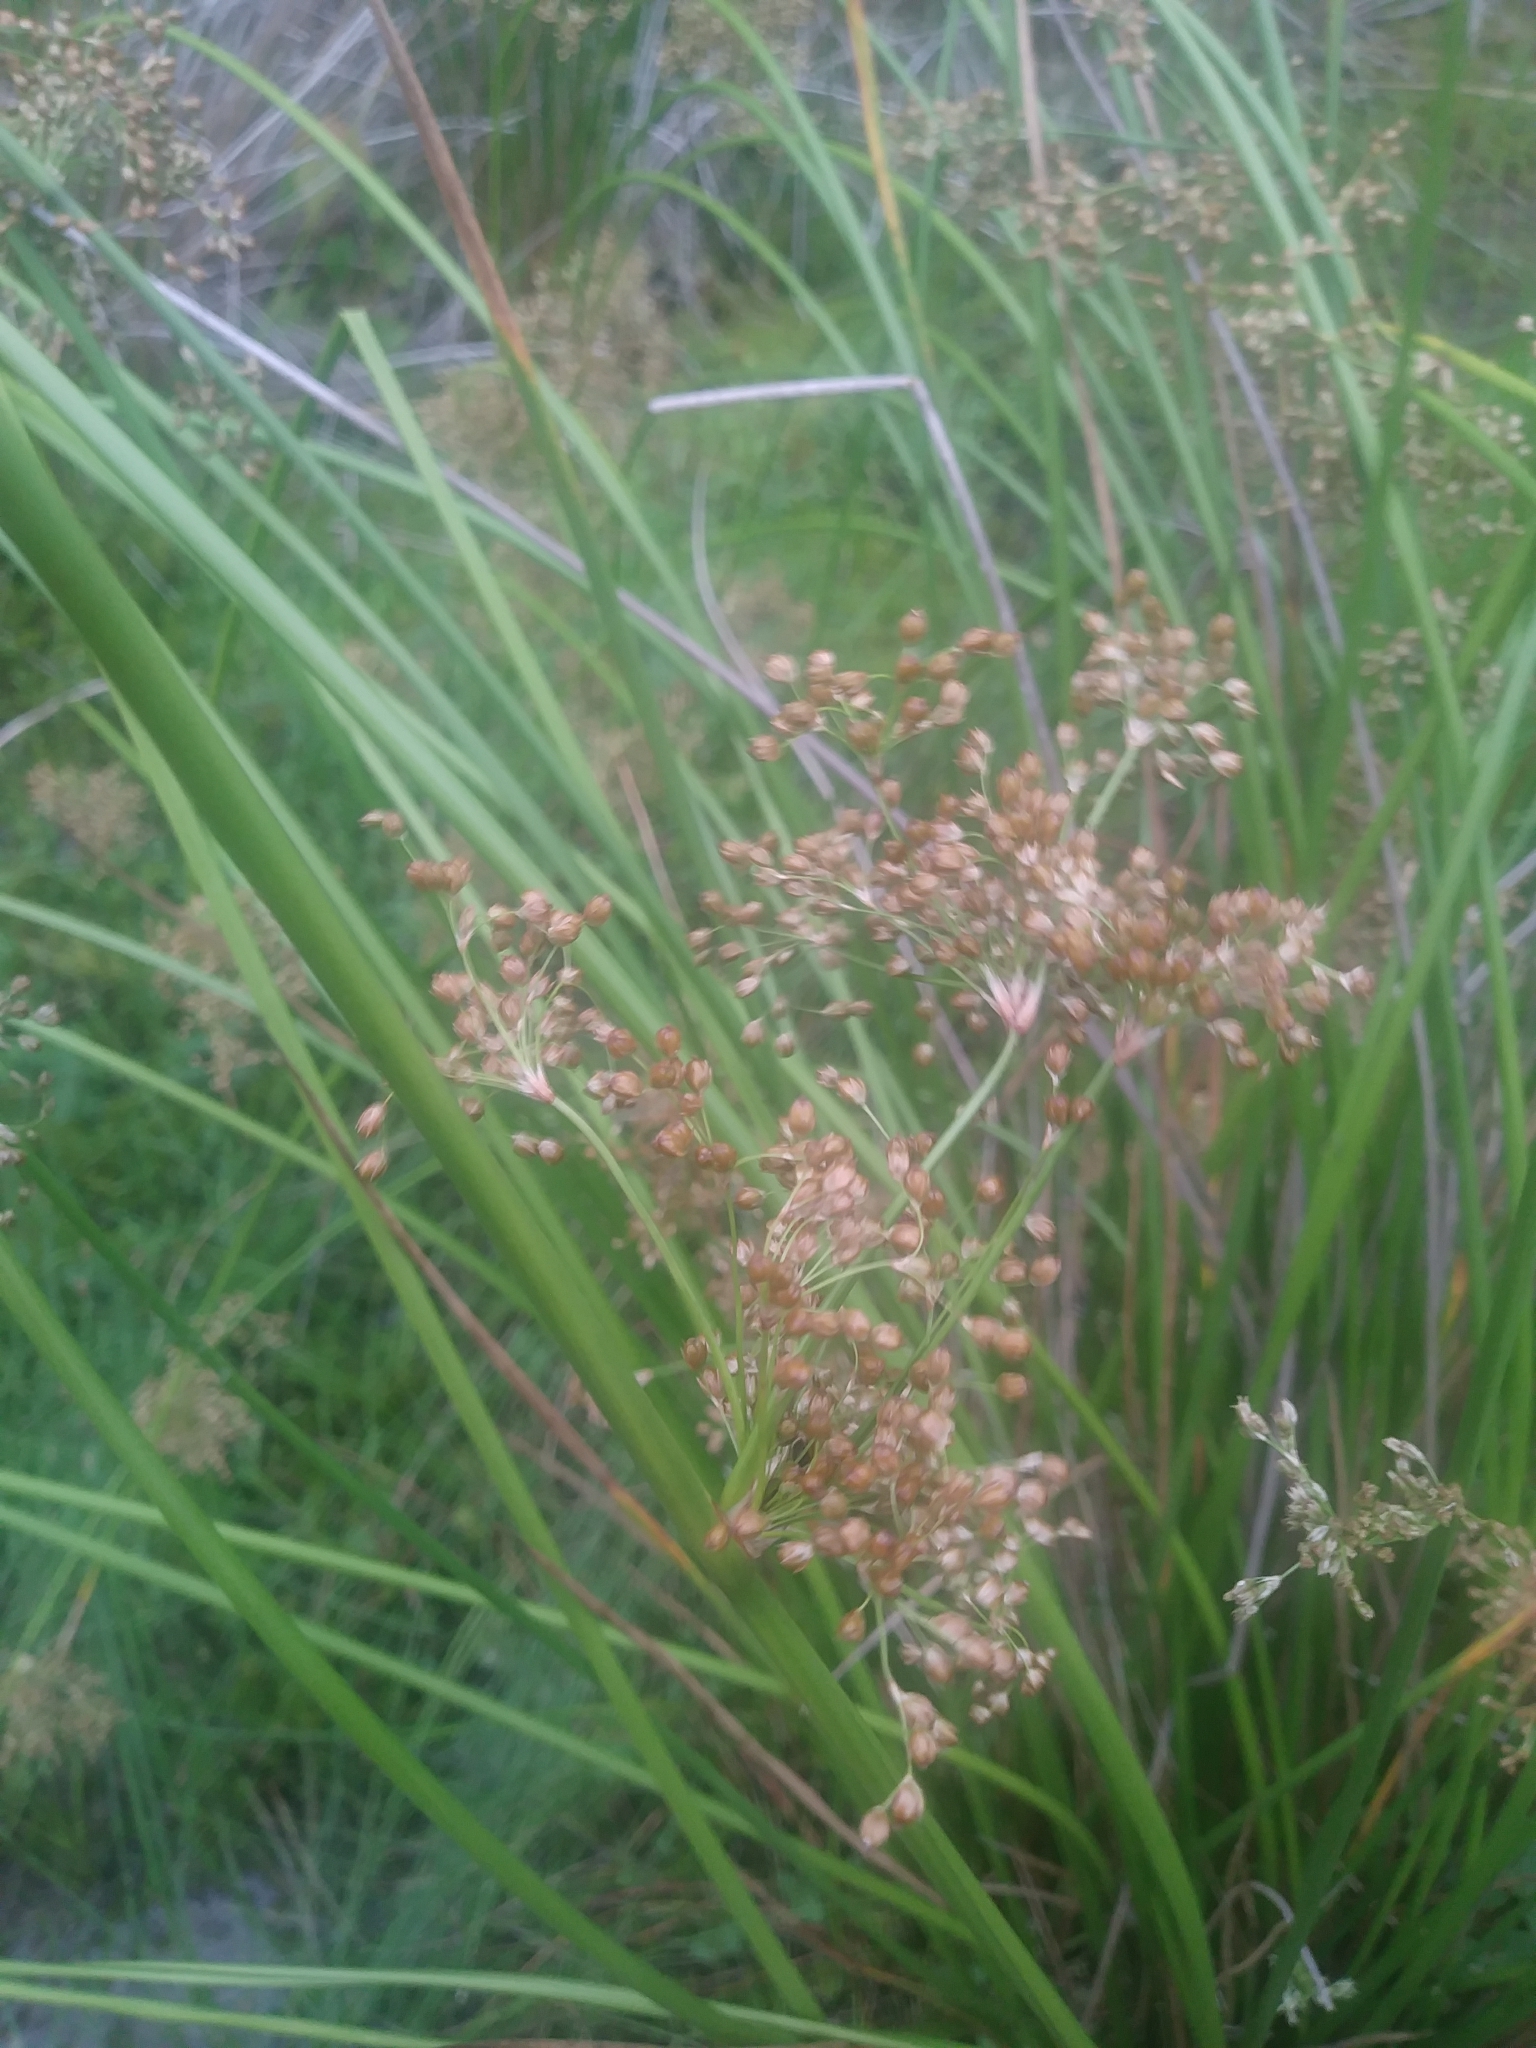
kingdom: Plantae
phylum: Tracheophyta
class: Liliopsida
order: Poales
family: Juncaceae
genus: Juncus
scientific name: Juncus effusus
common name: Soft rush
